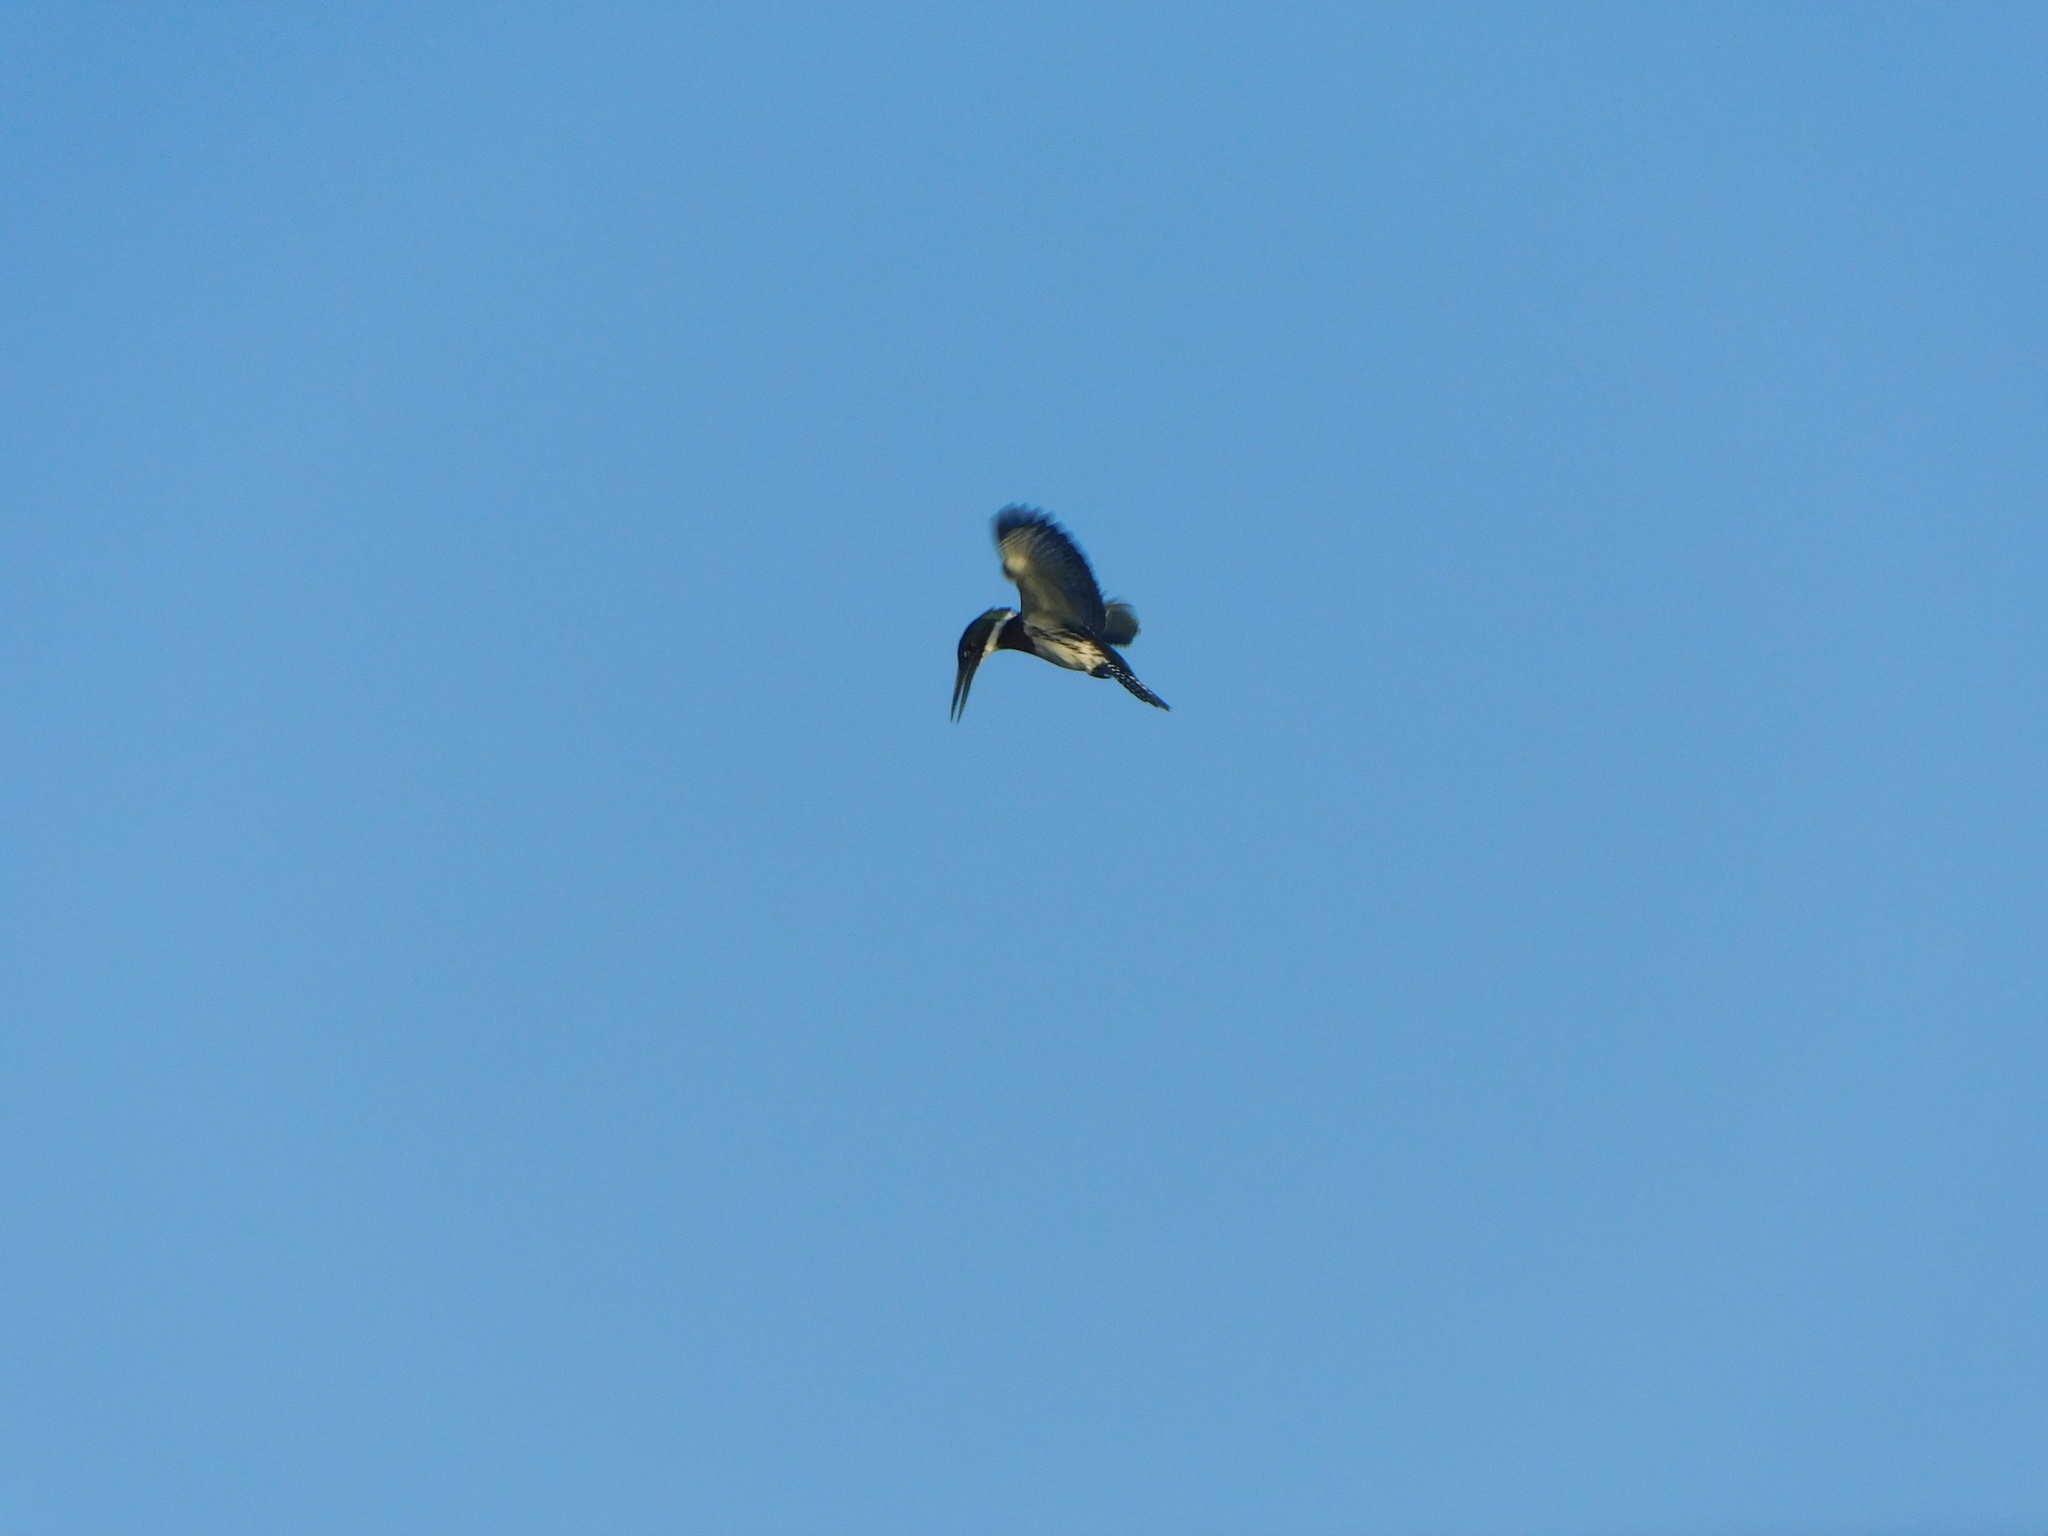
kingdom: Animalia
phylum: Chordata
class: Aves
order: Coraciiformes
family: Alcedinidae
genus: Chloroceryle
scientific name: Chloroceryle amazona
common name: Amazon kingfisher
